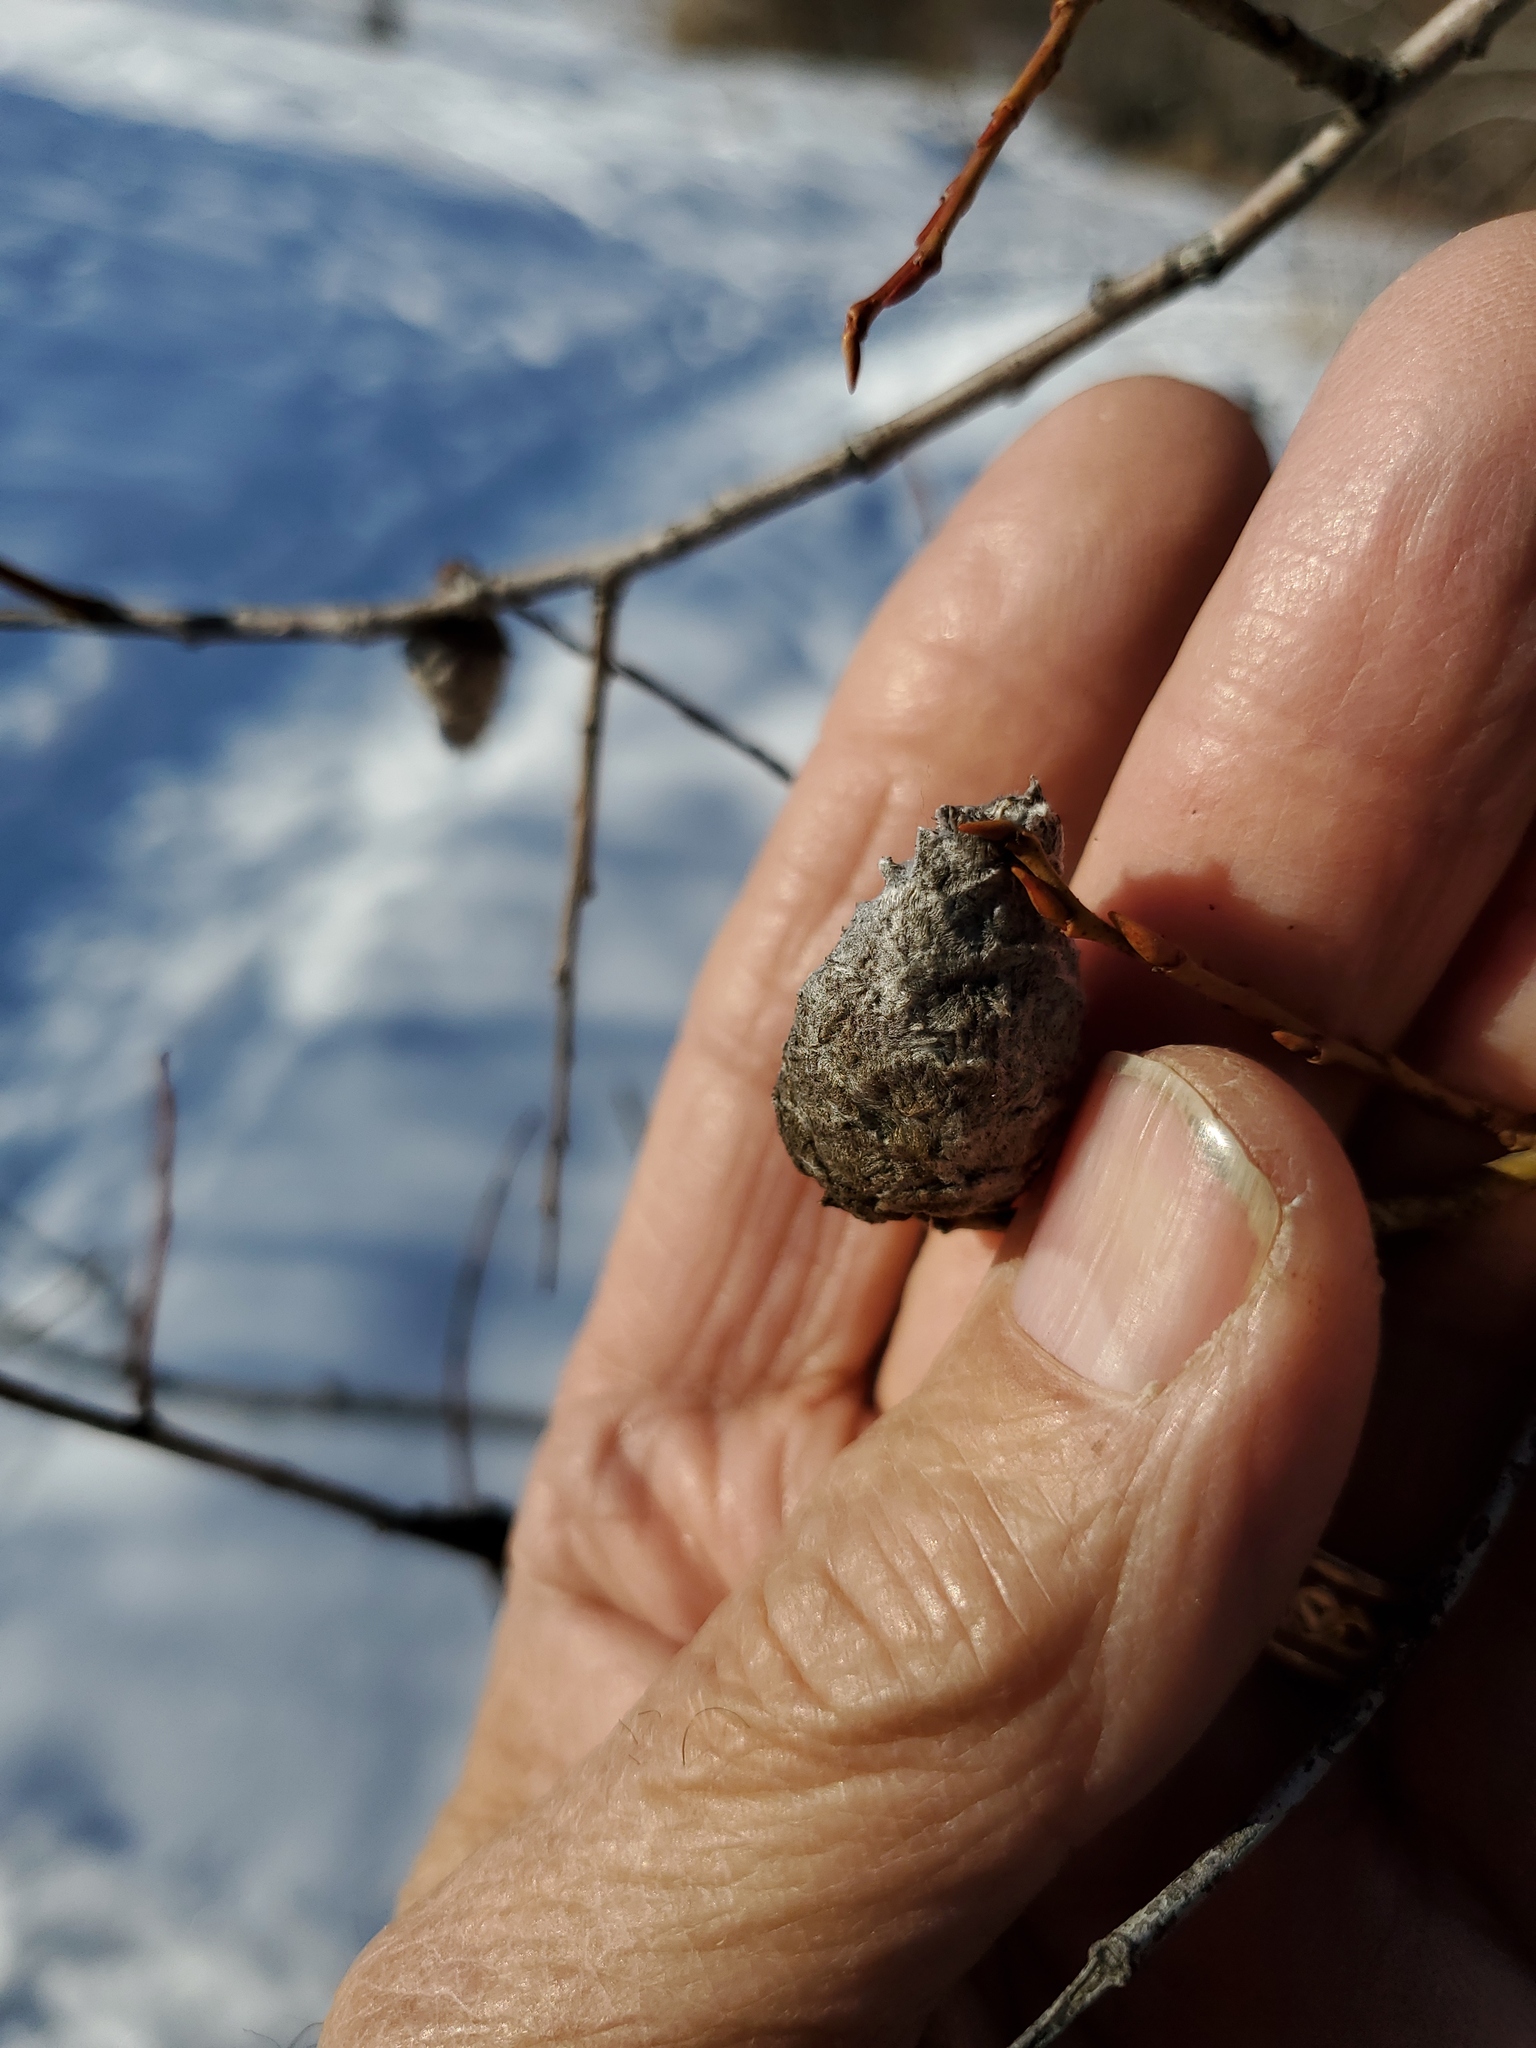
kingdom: Animalia
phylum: Arthropoda
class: Insecta
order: Diptera
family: Cecidomyiidae
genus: Rabdophaga
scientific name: Rabdophaga strobiloides
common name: Willow pinecone gall midge
